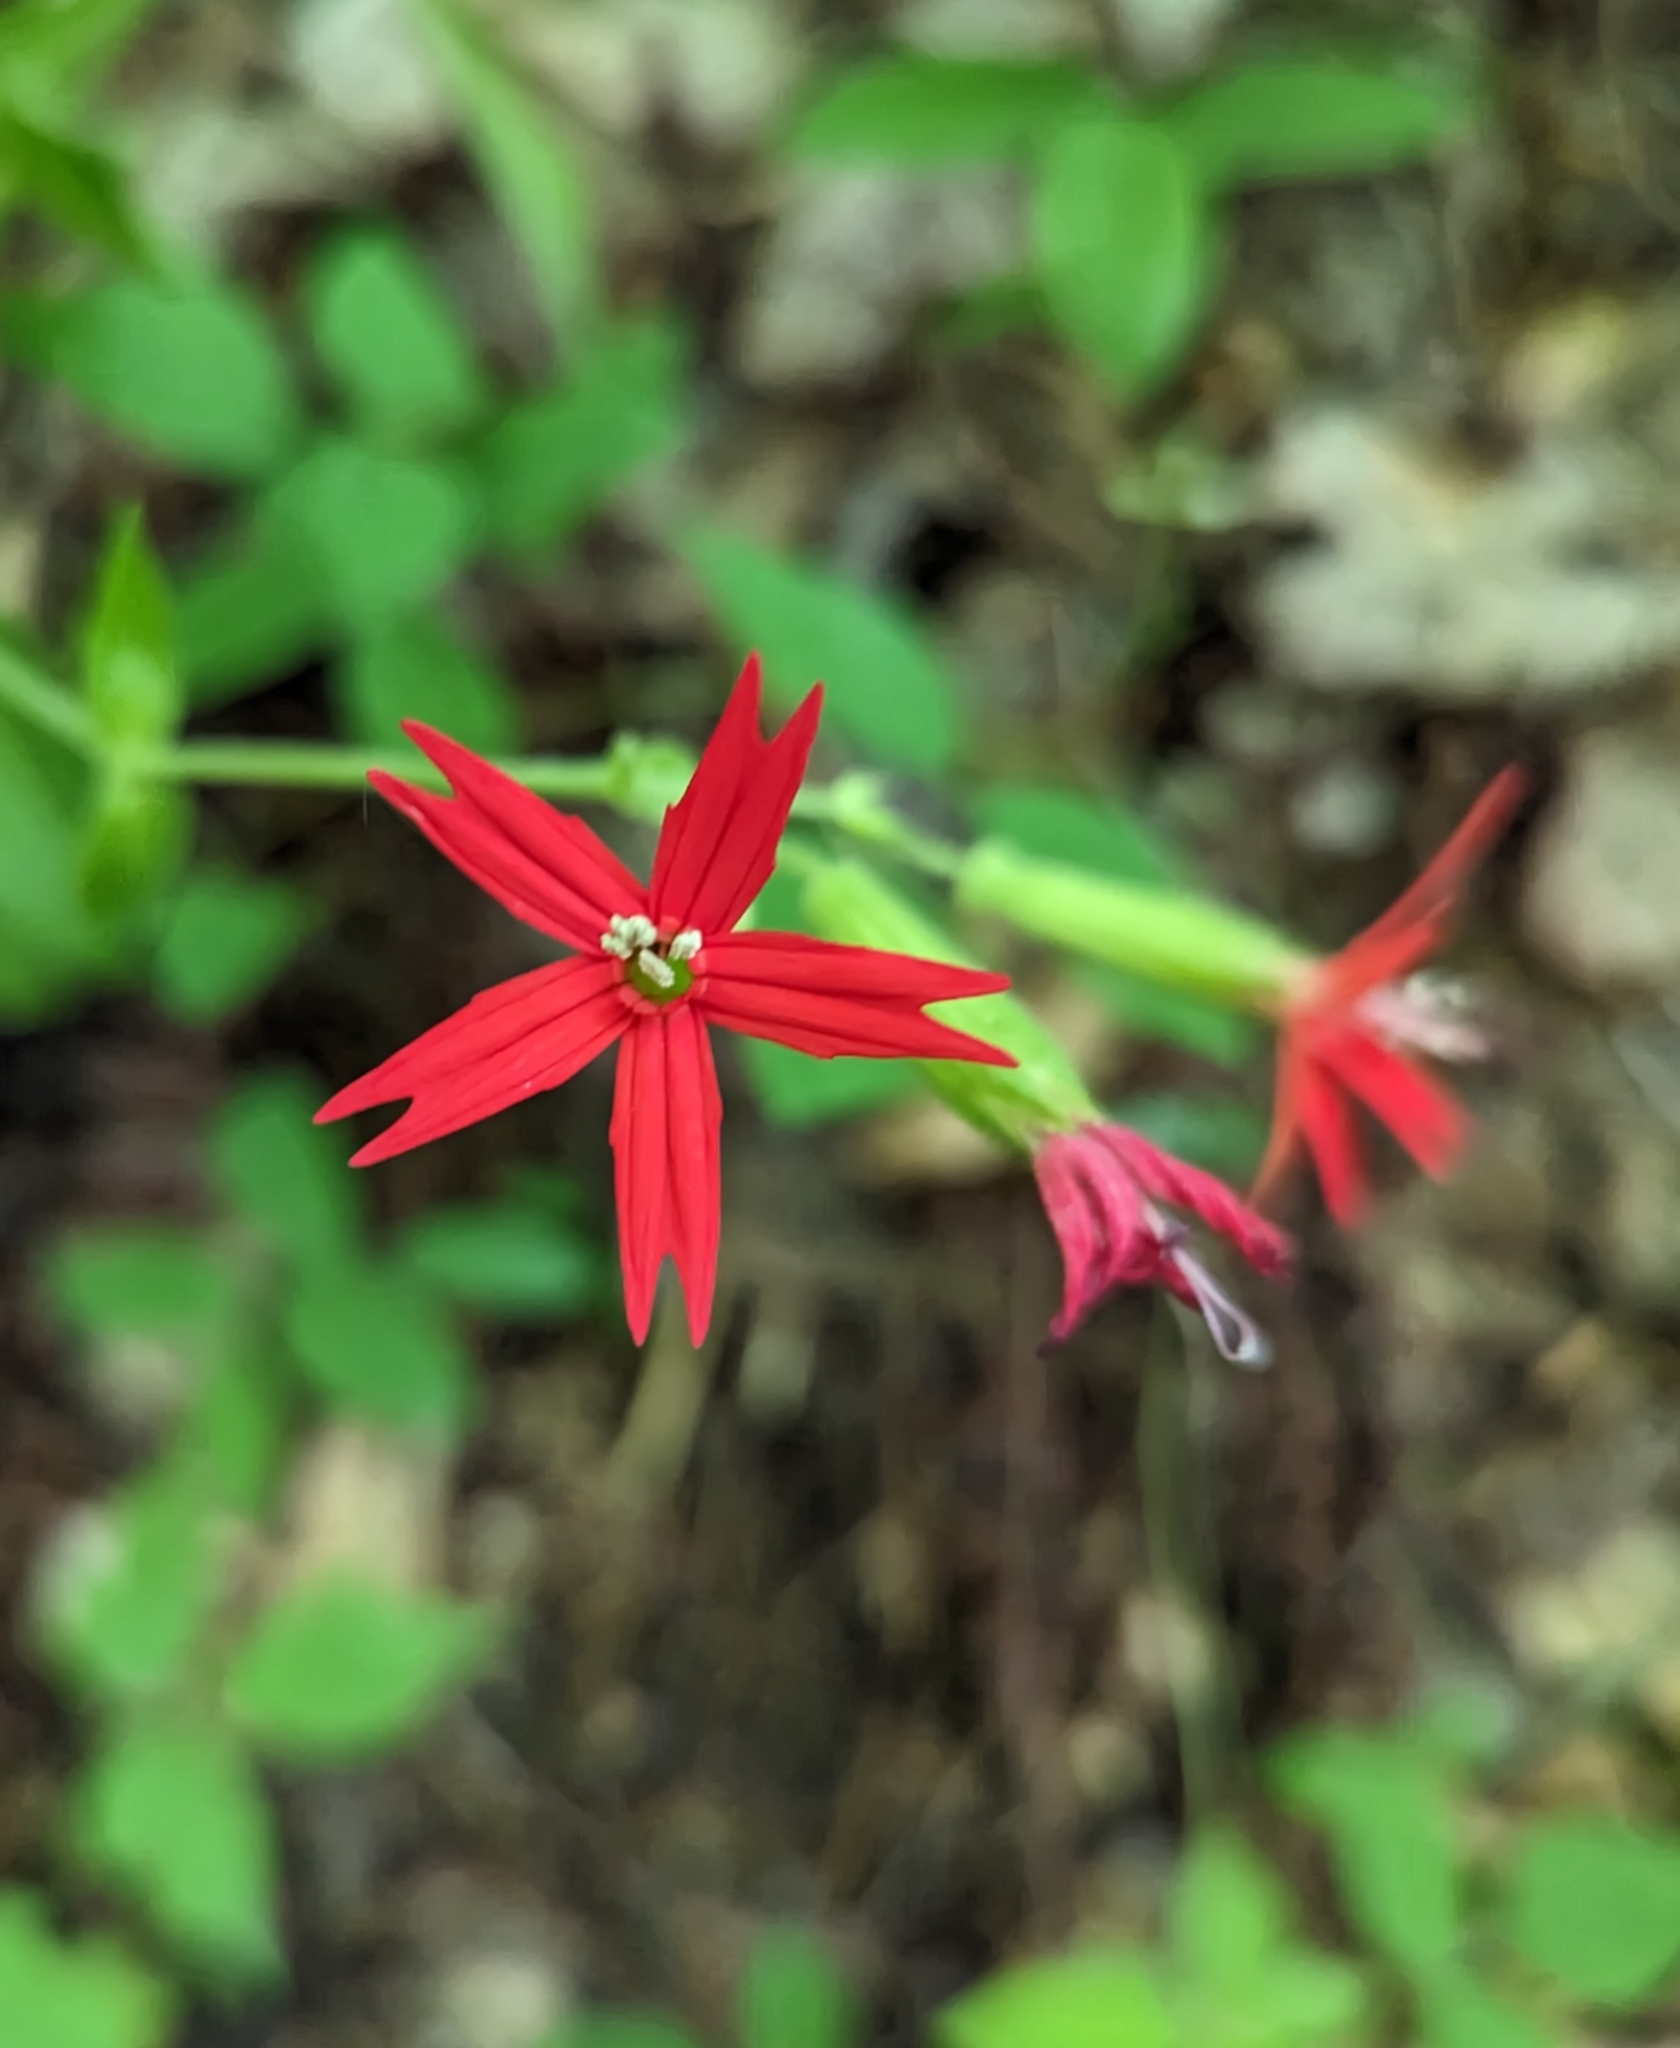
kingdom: Plantae
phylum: Tracheophyta
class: Magnoliopsida
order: Caryophyllales
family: Caryophyllaceae
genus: Silene
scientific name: Silene virginica
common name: Fire-pink
